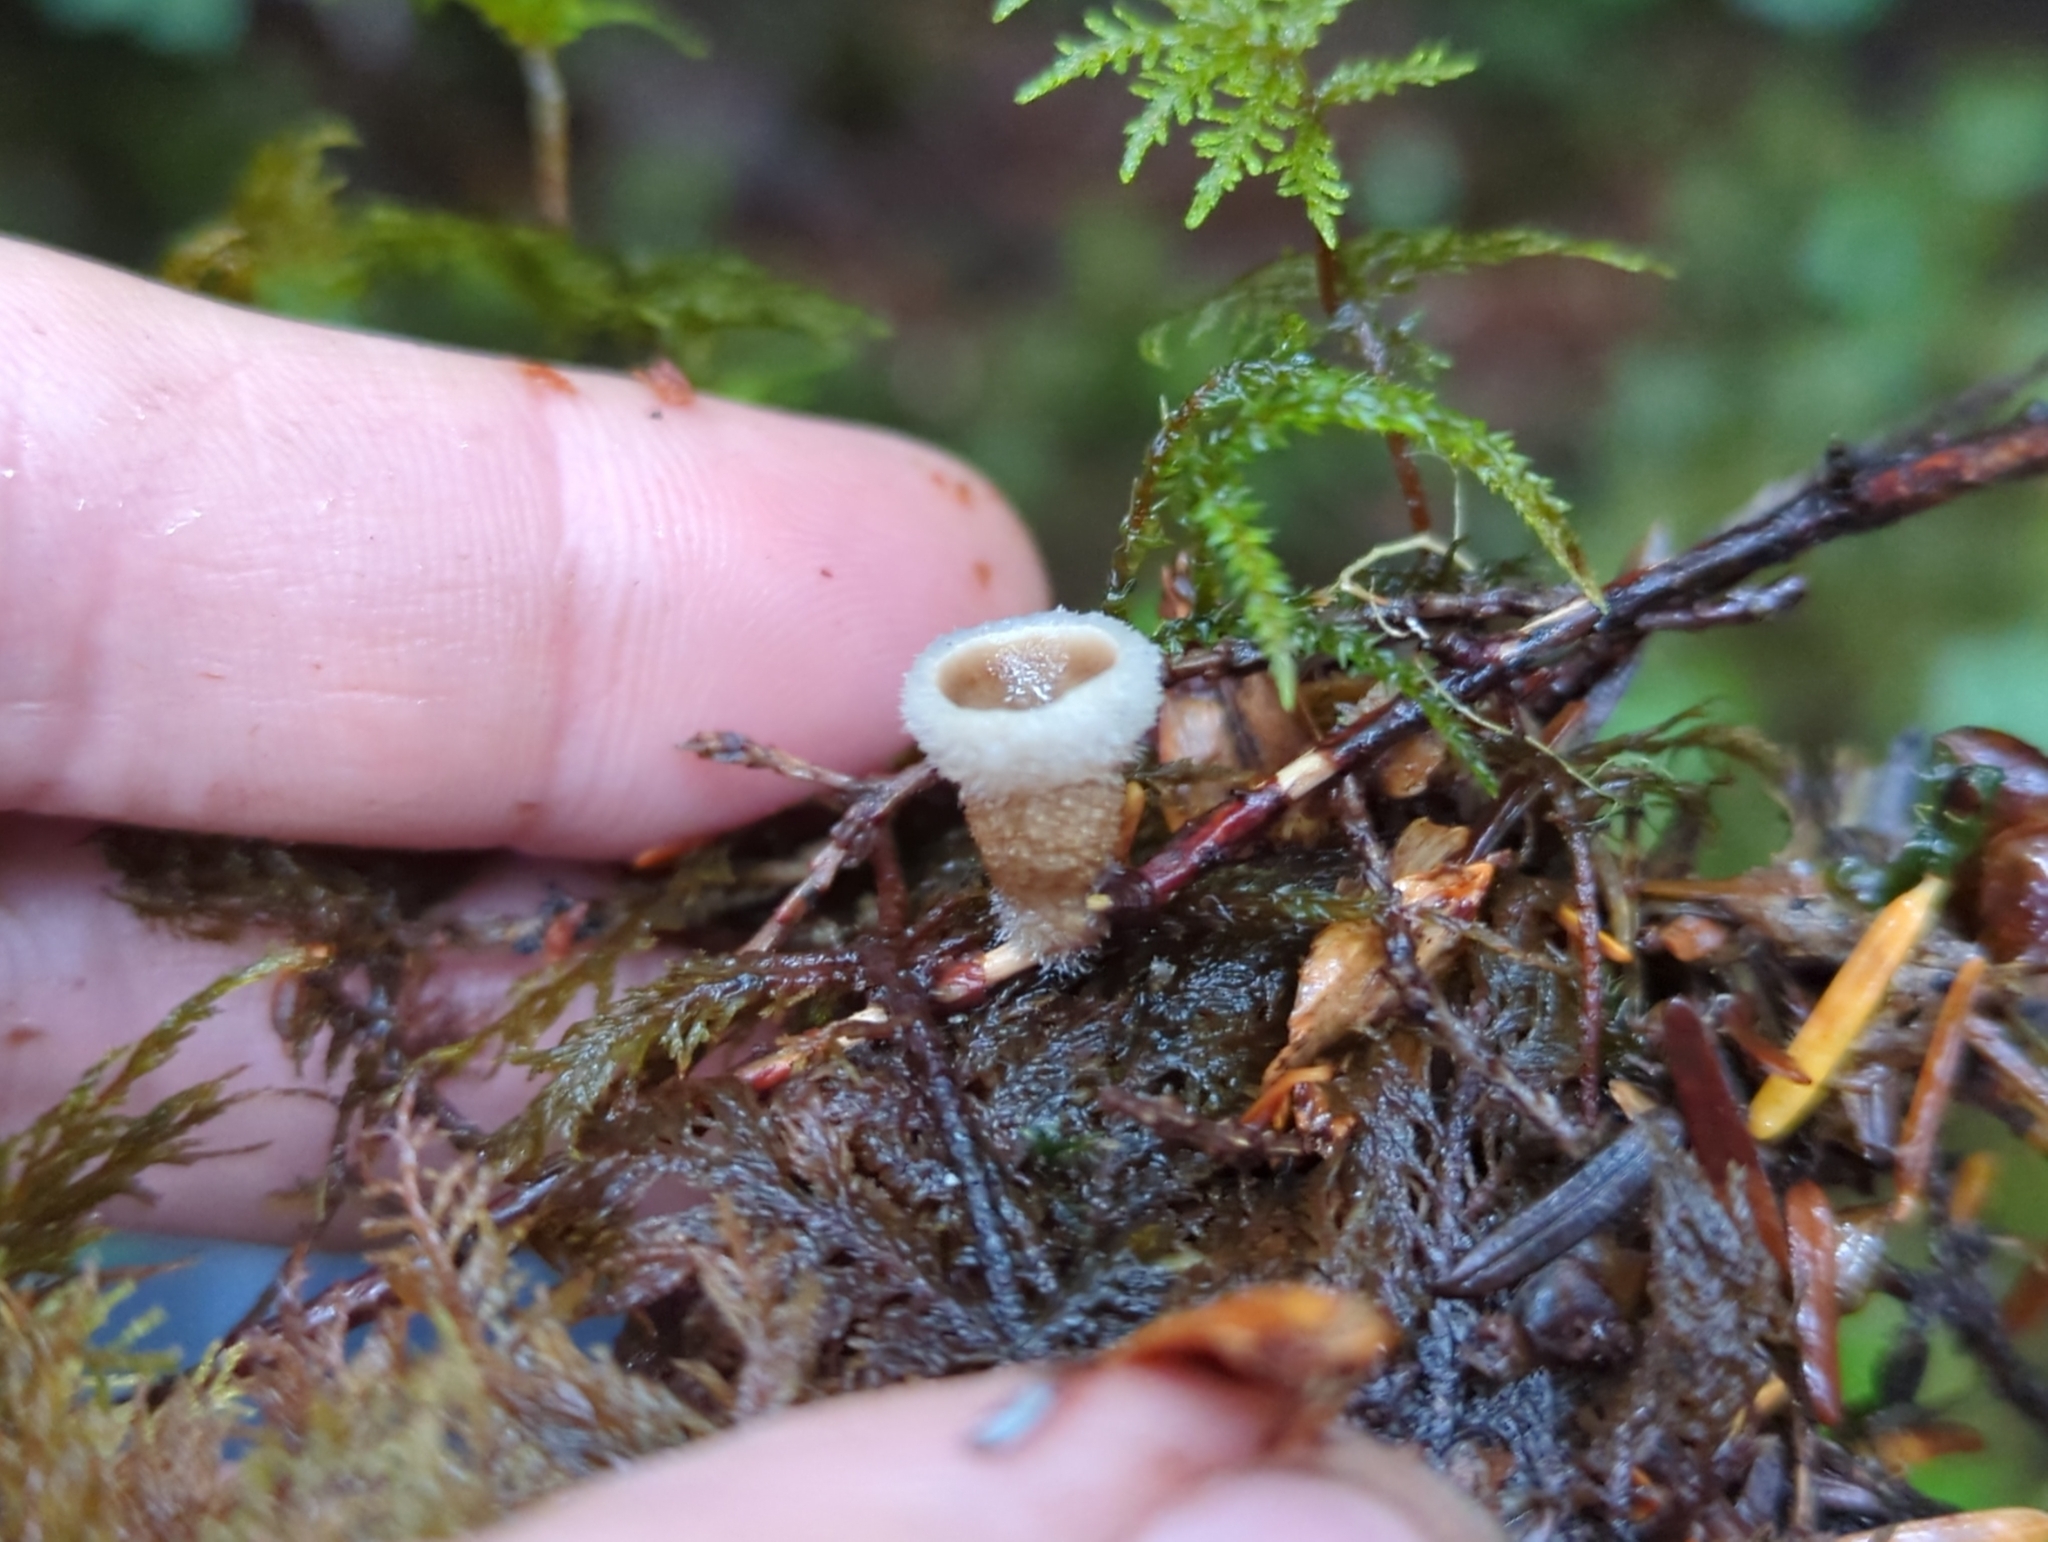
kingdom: Fungi
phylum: Basidiomycota
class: Agaricomycetes
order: Agaricales
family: Agaricaceae
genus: Nidula
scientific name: Nidula candida
